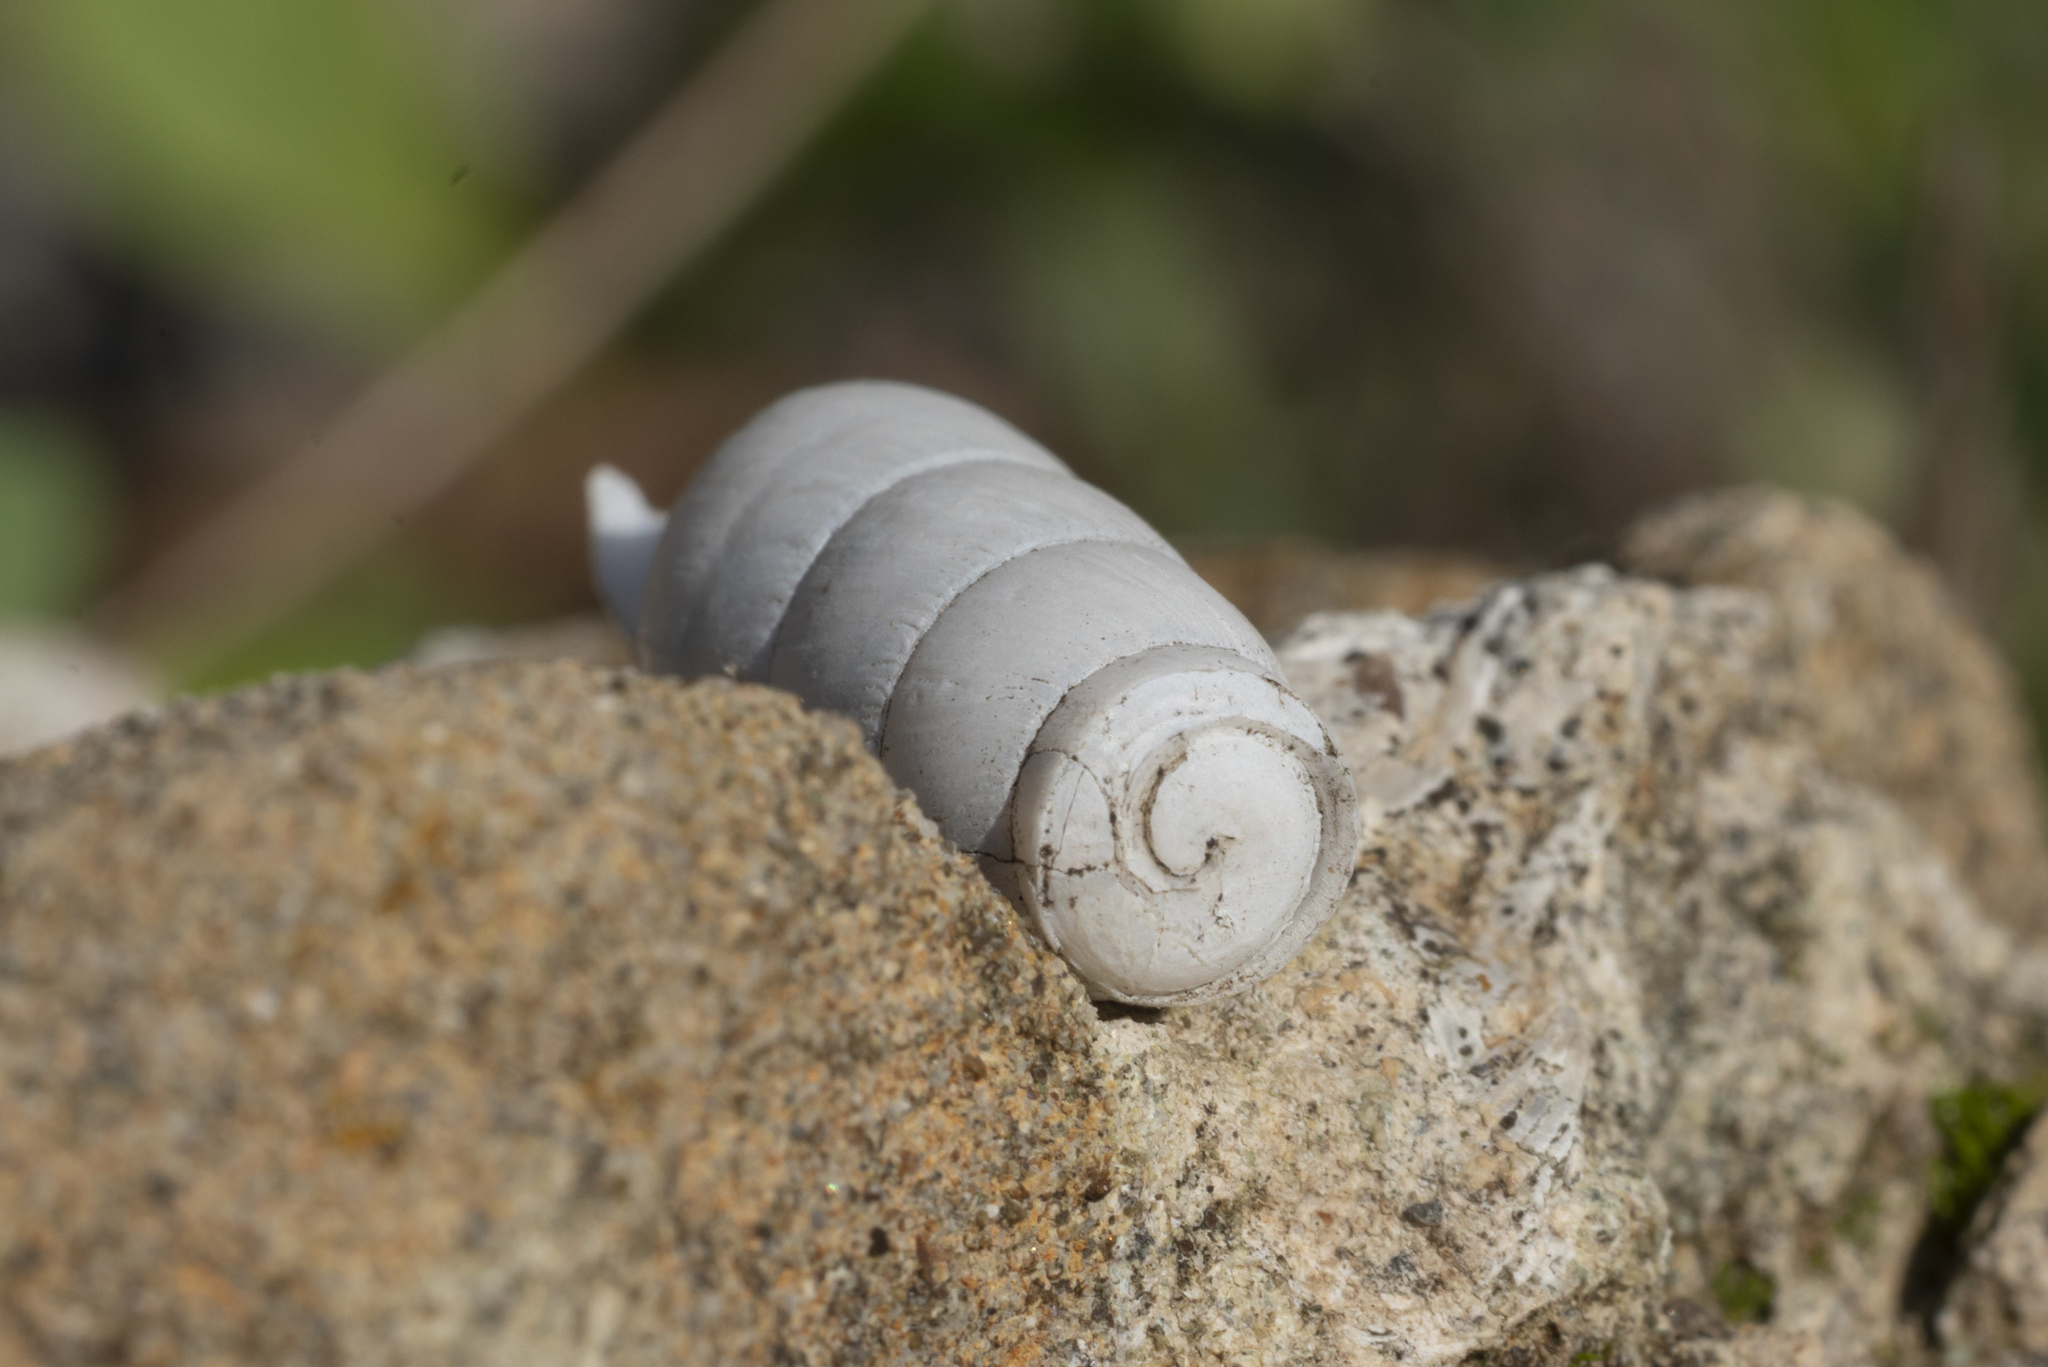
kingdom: Animalia
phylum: Mollusca
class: Gastropoda
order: Stylommatophora
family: Achatinidae
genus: Rumina
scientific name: Rumina saharica
